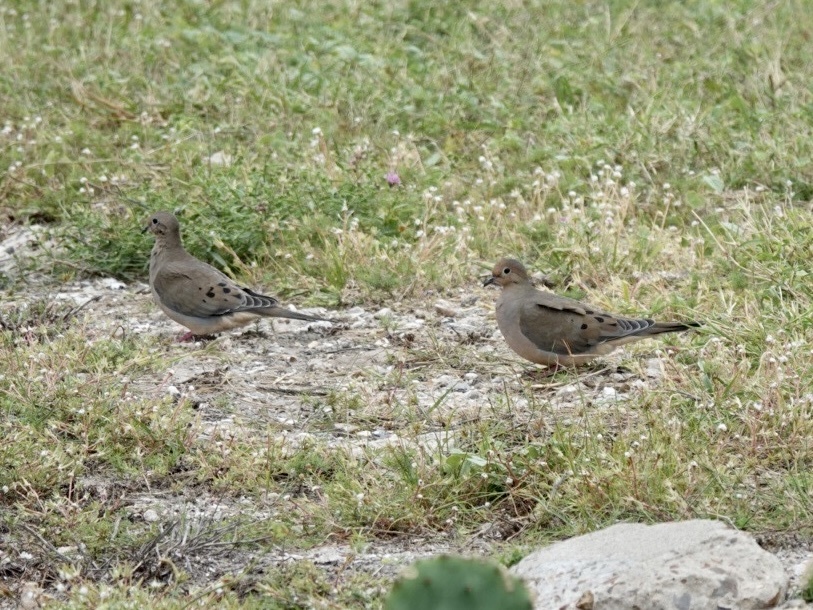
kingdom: Animalia
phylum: Chordata
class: Aves
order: Columbiformes
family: Columbidae
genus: Zenaida
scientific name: Zenaida macroura
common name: Mourning dove
